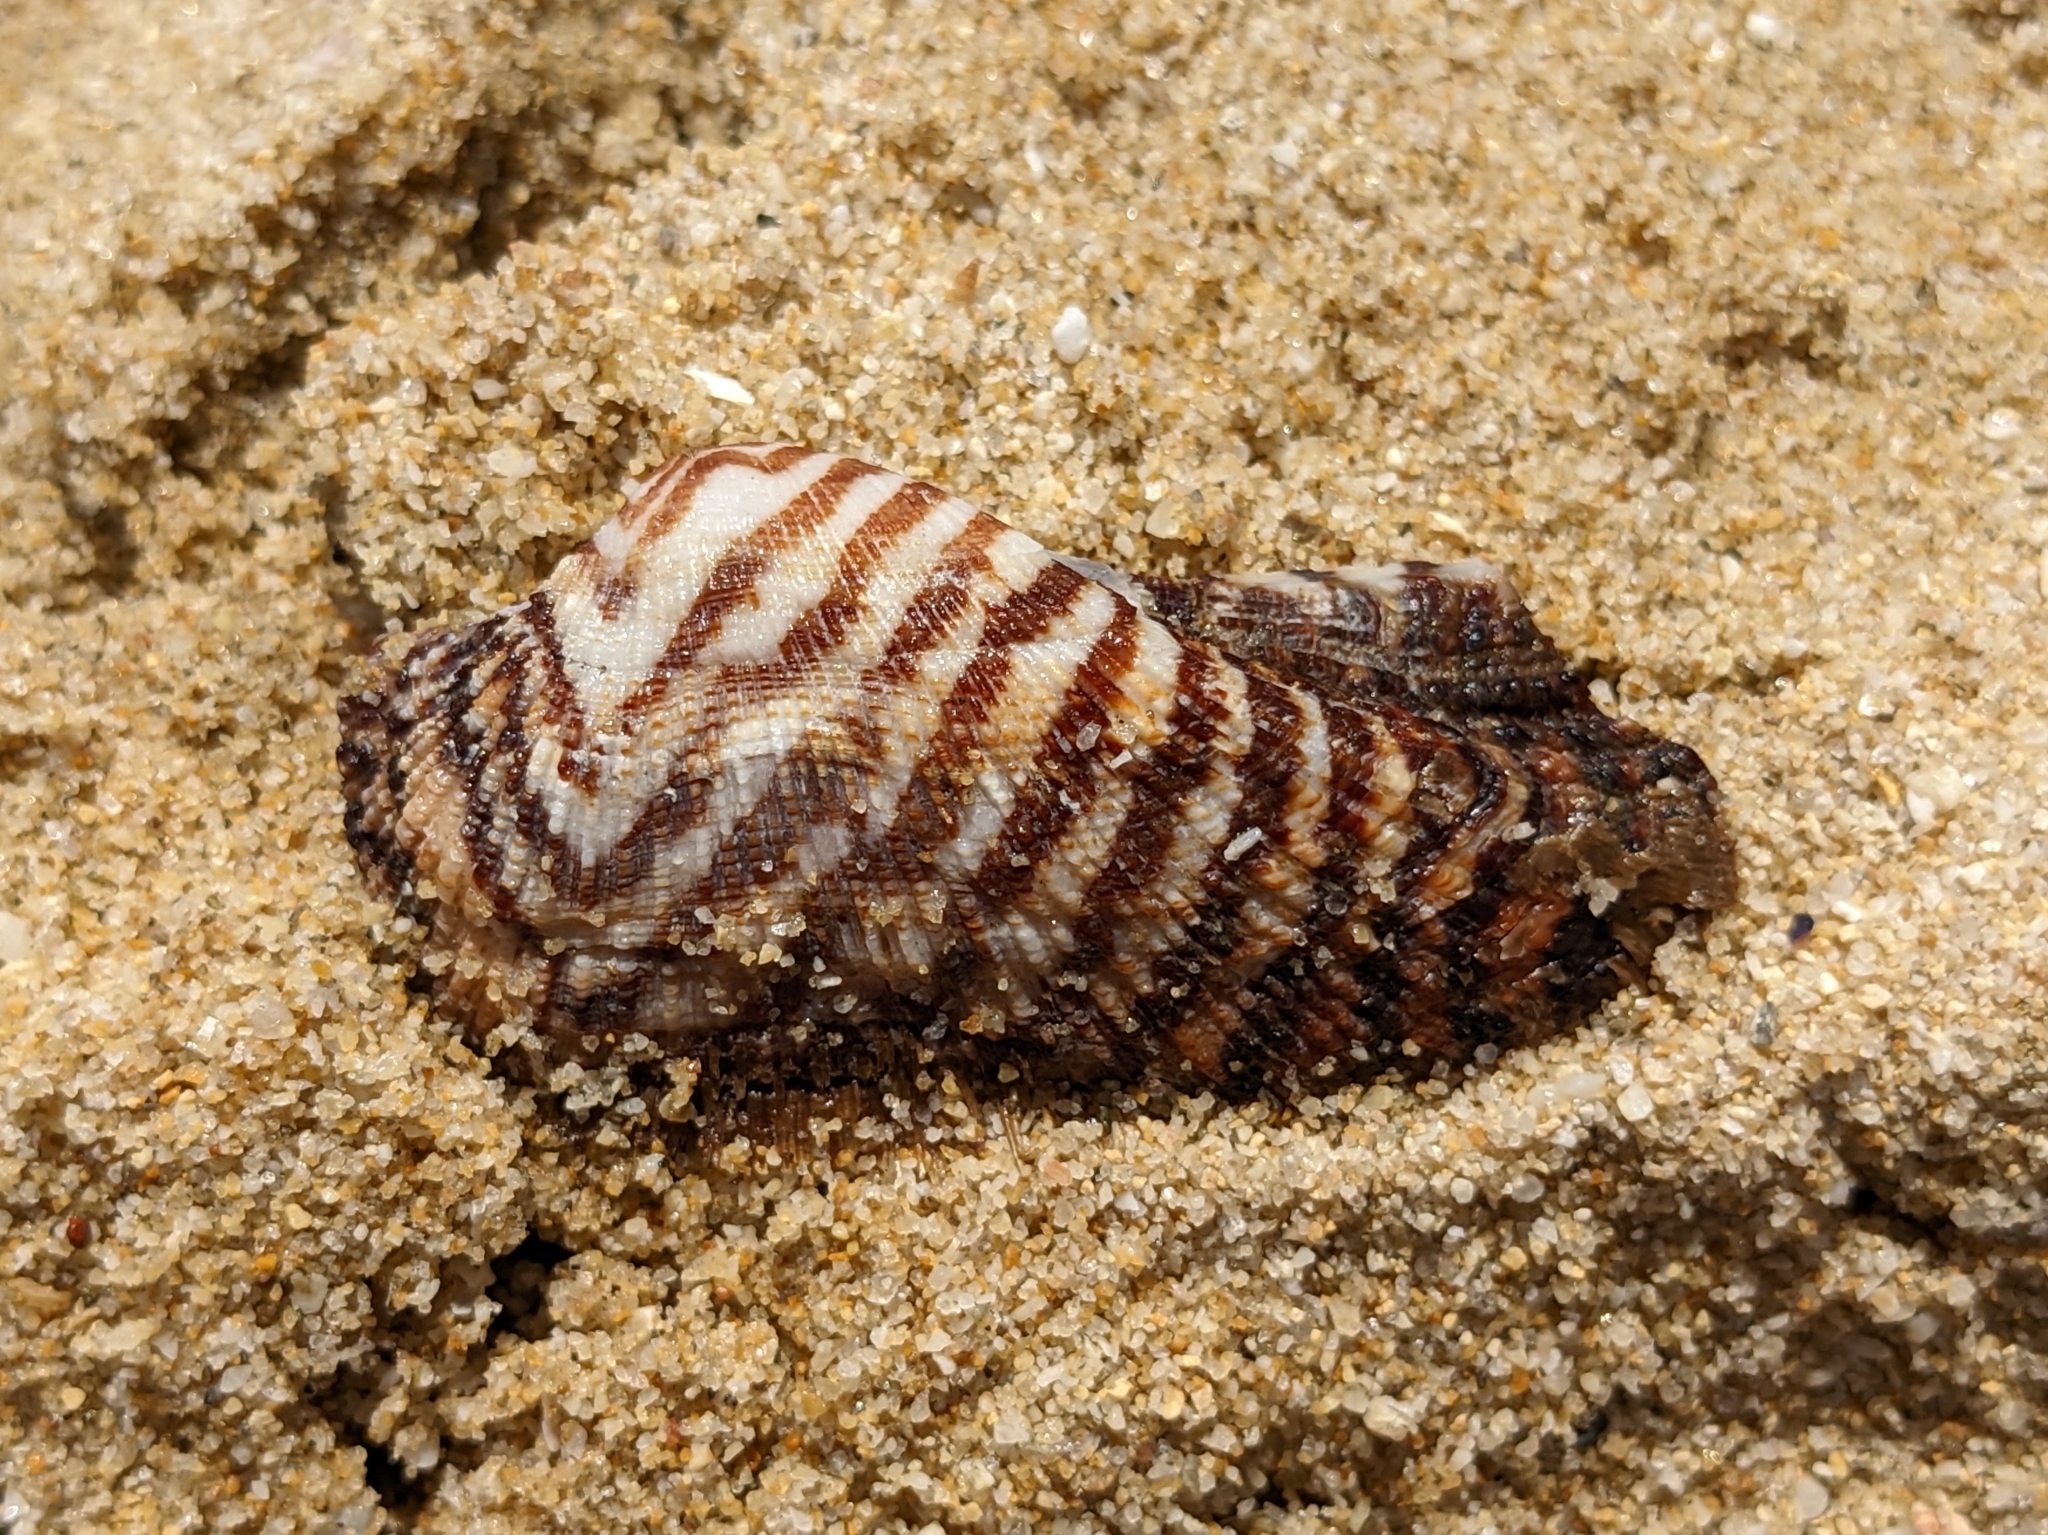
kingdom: Animalia
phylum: Mollusca
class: Bivalvia
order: Arcida
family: Arcidae
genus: Arca
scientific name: Arca noae
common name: Noah's arch
